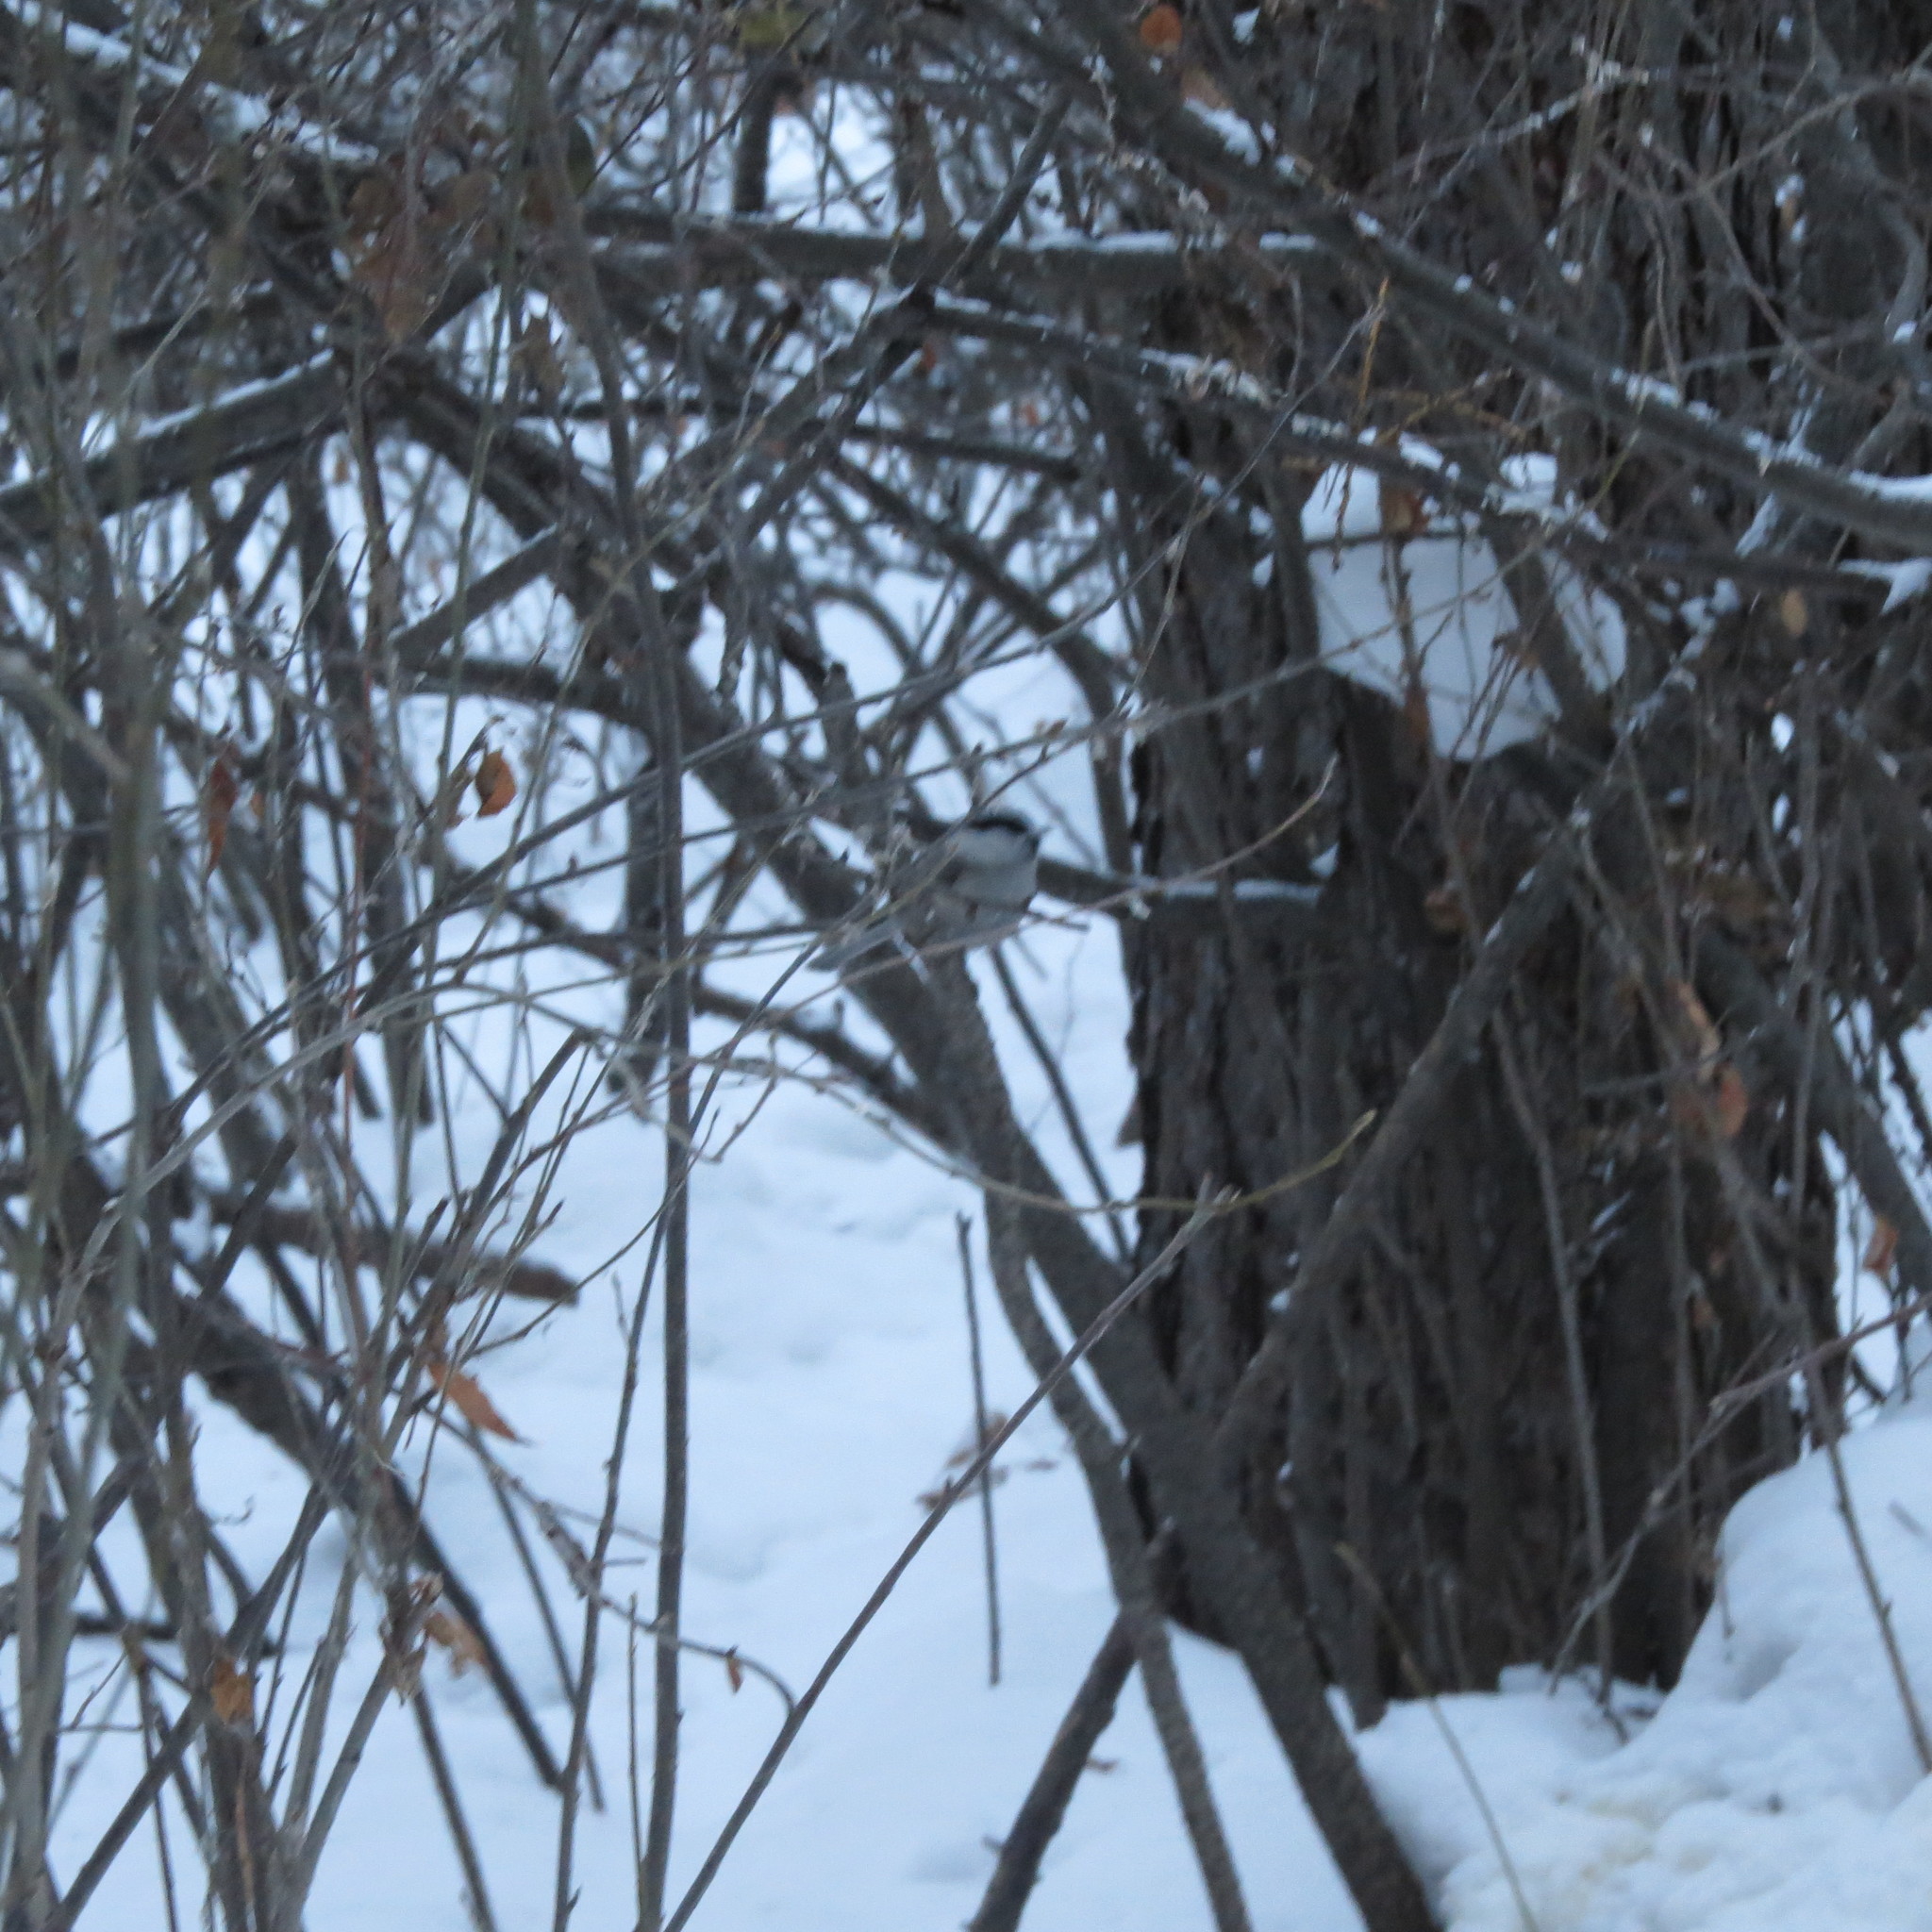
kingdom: Animalia
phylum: Chordata
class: Aves
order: Passeriformes
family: Paridae
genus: Poecile
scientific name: Poecile montanus
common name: Willow tit
